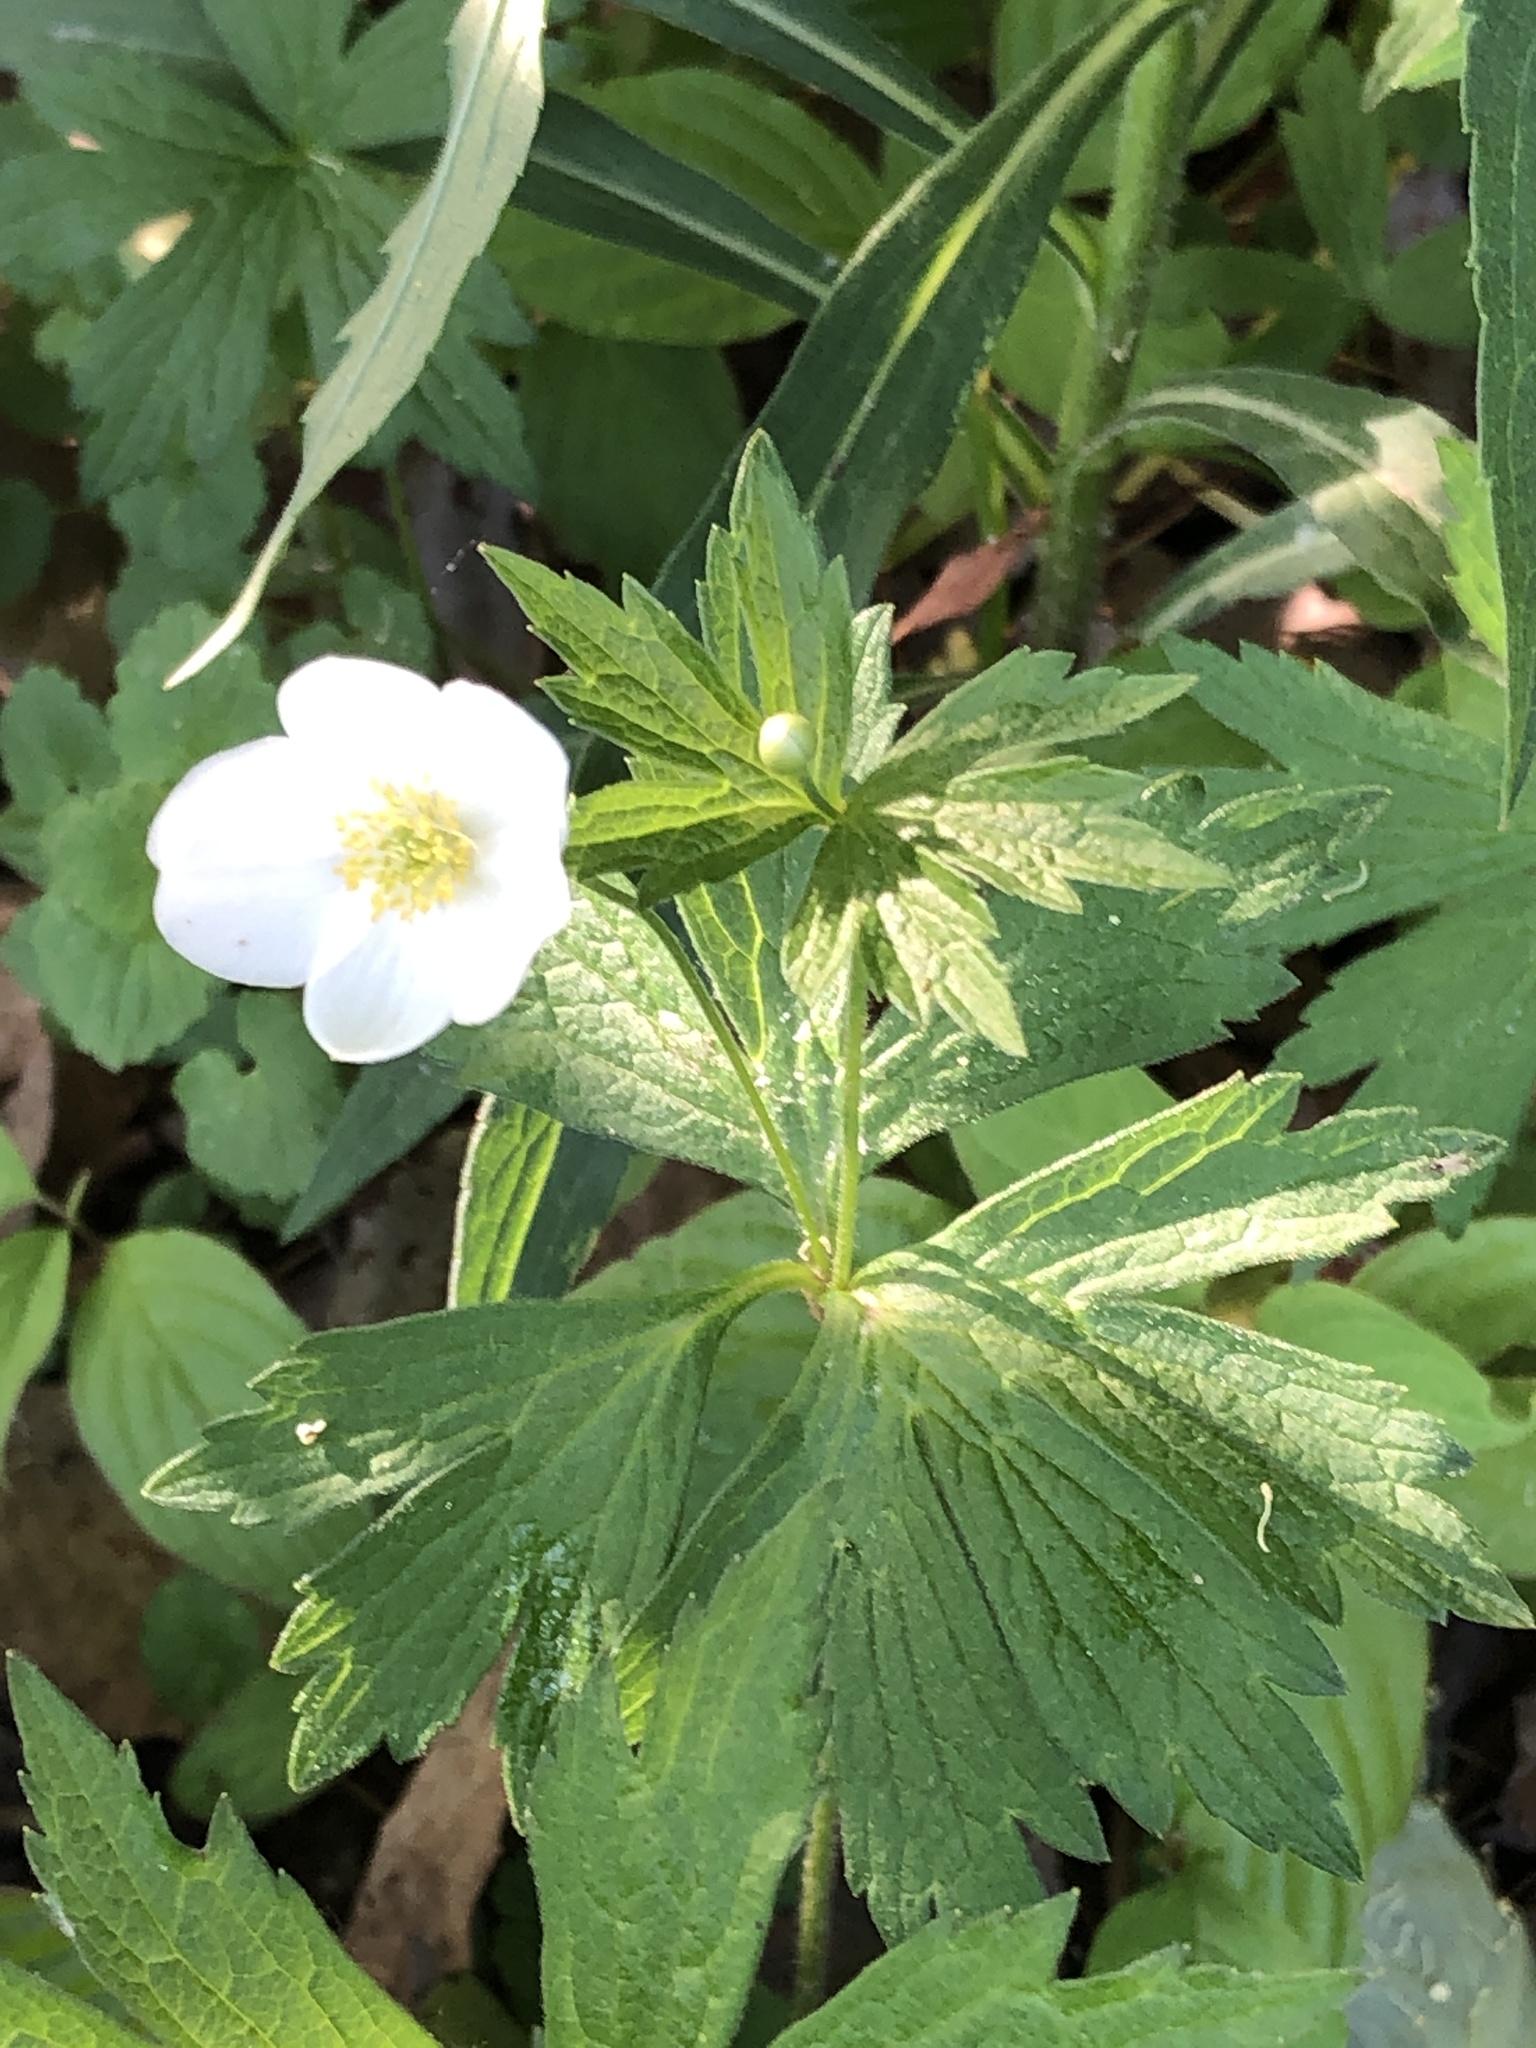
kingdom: Plantae
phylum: Tracheophyta
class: Magnoliopsida
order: Ranunculales
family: Ranunculaceae
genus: Anemonastrum
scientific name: Anemonastrum canadense
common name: Canada anemone
